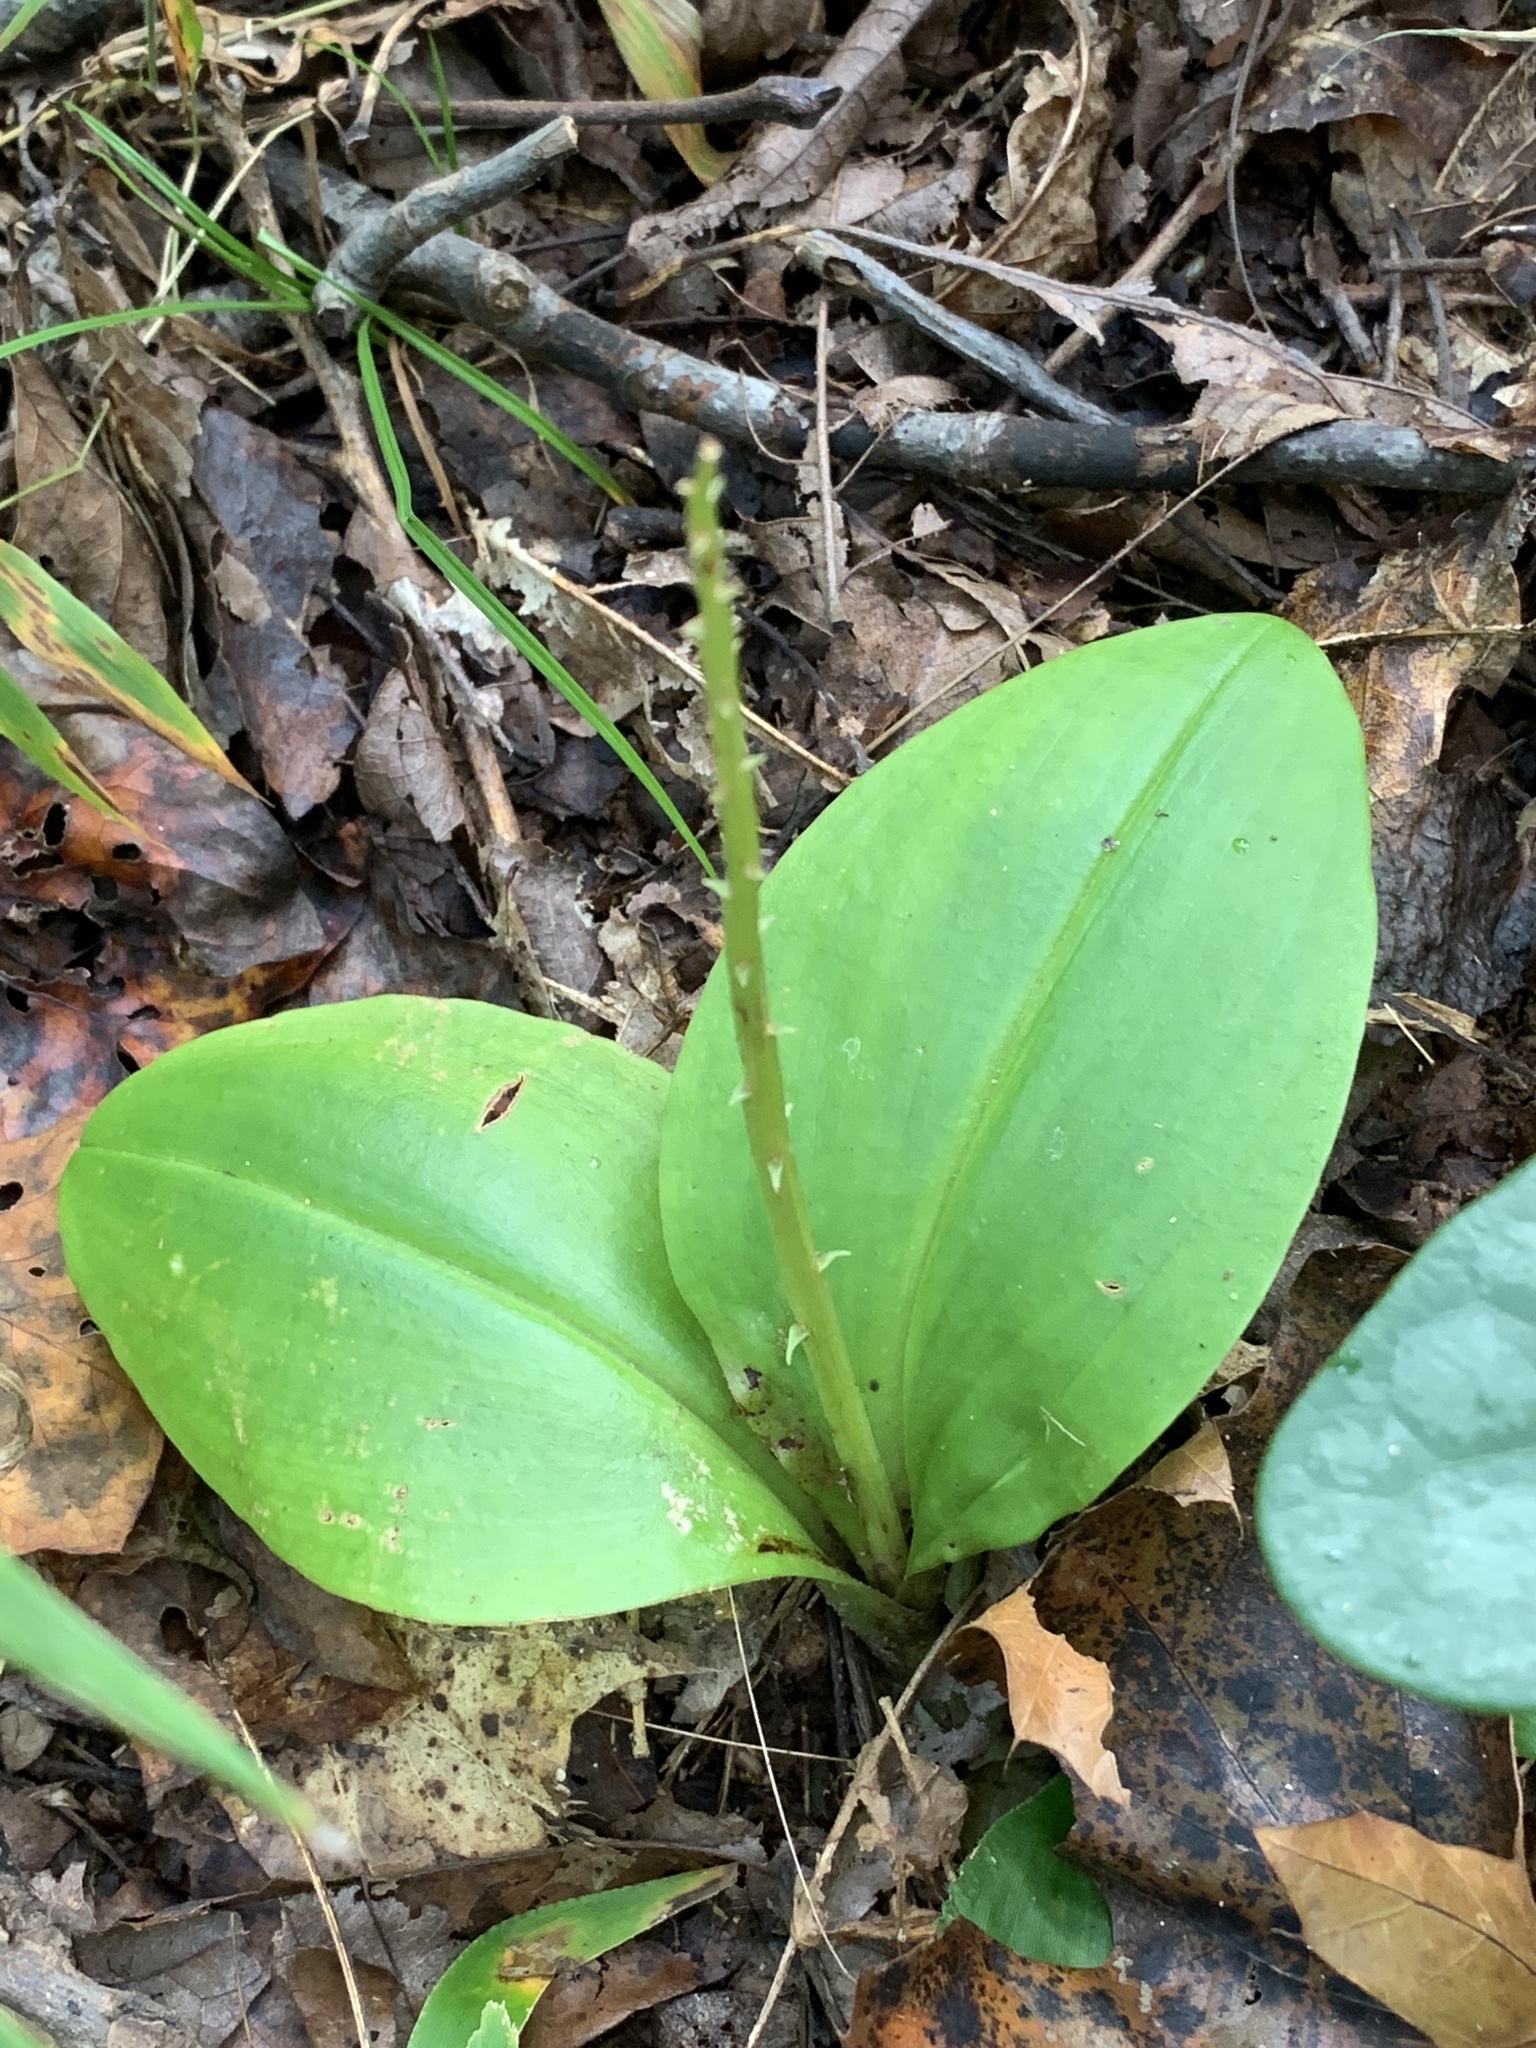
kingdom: Plantae
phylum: Tracheophyta
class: Liliopsida
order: Asparagales
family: Orchidaceae
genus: Liparis
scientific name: Liparis liliifolia
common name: Brown wide-lip orchid
